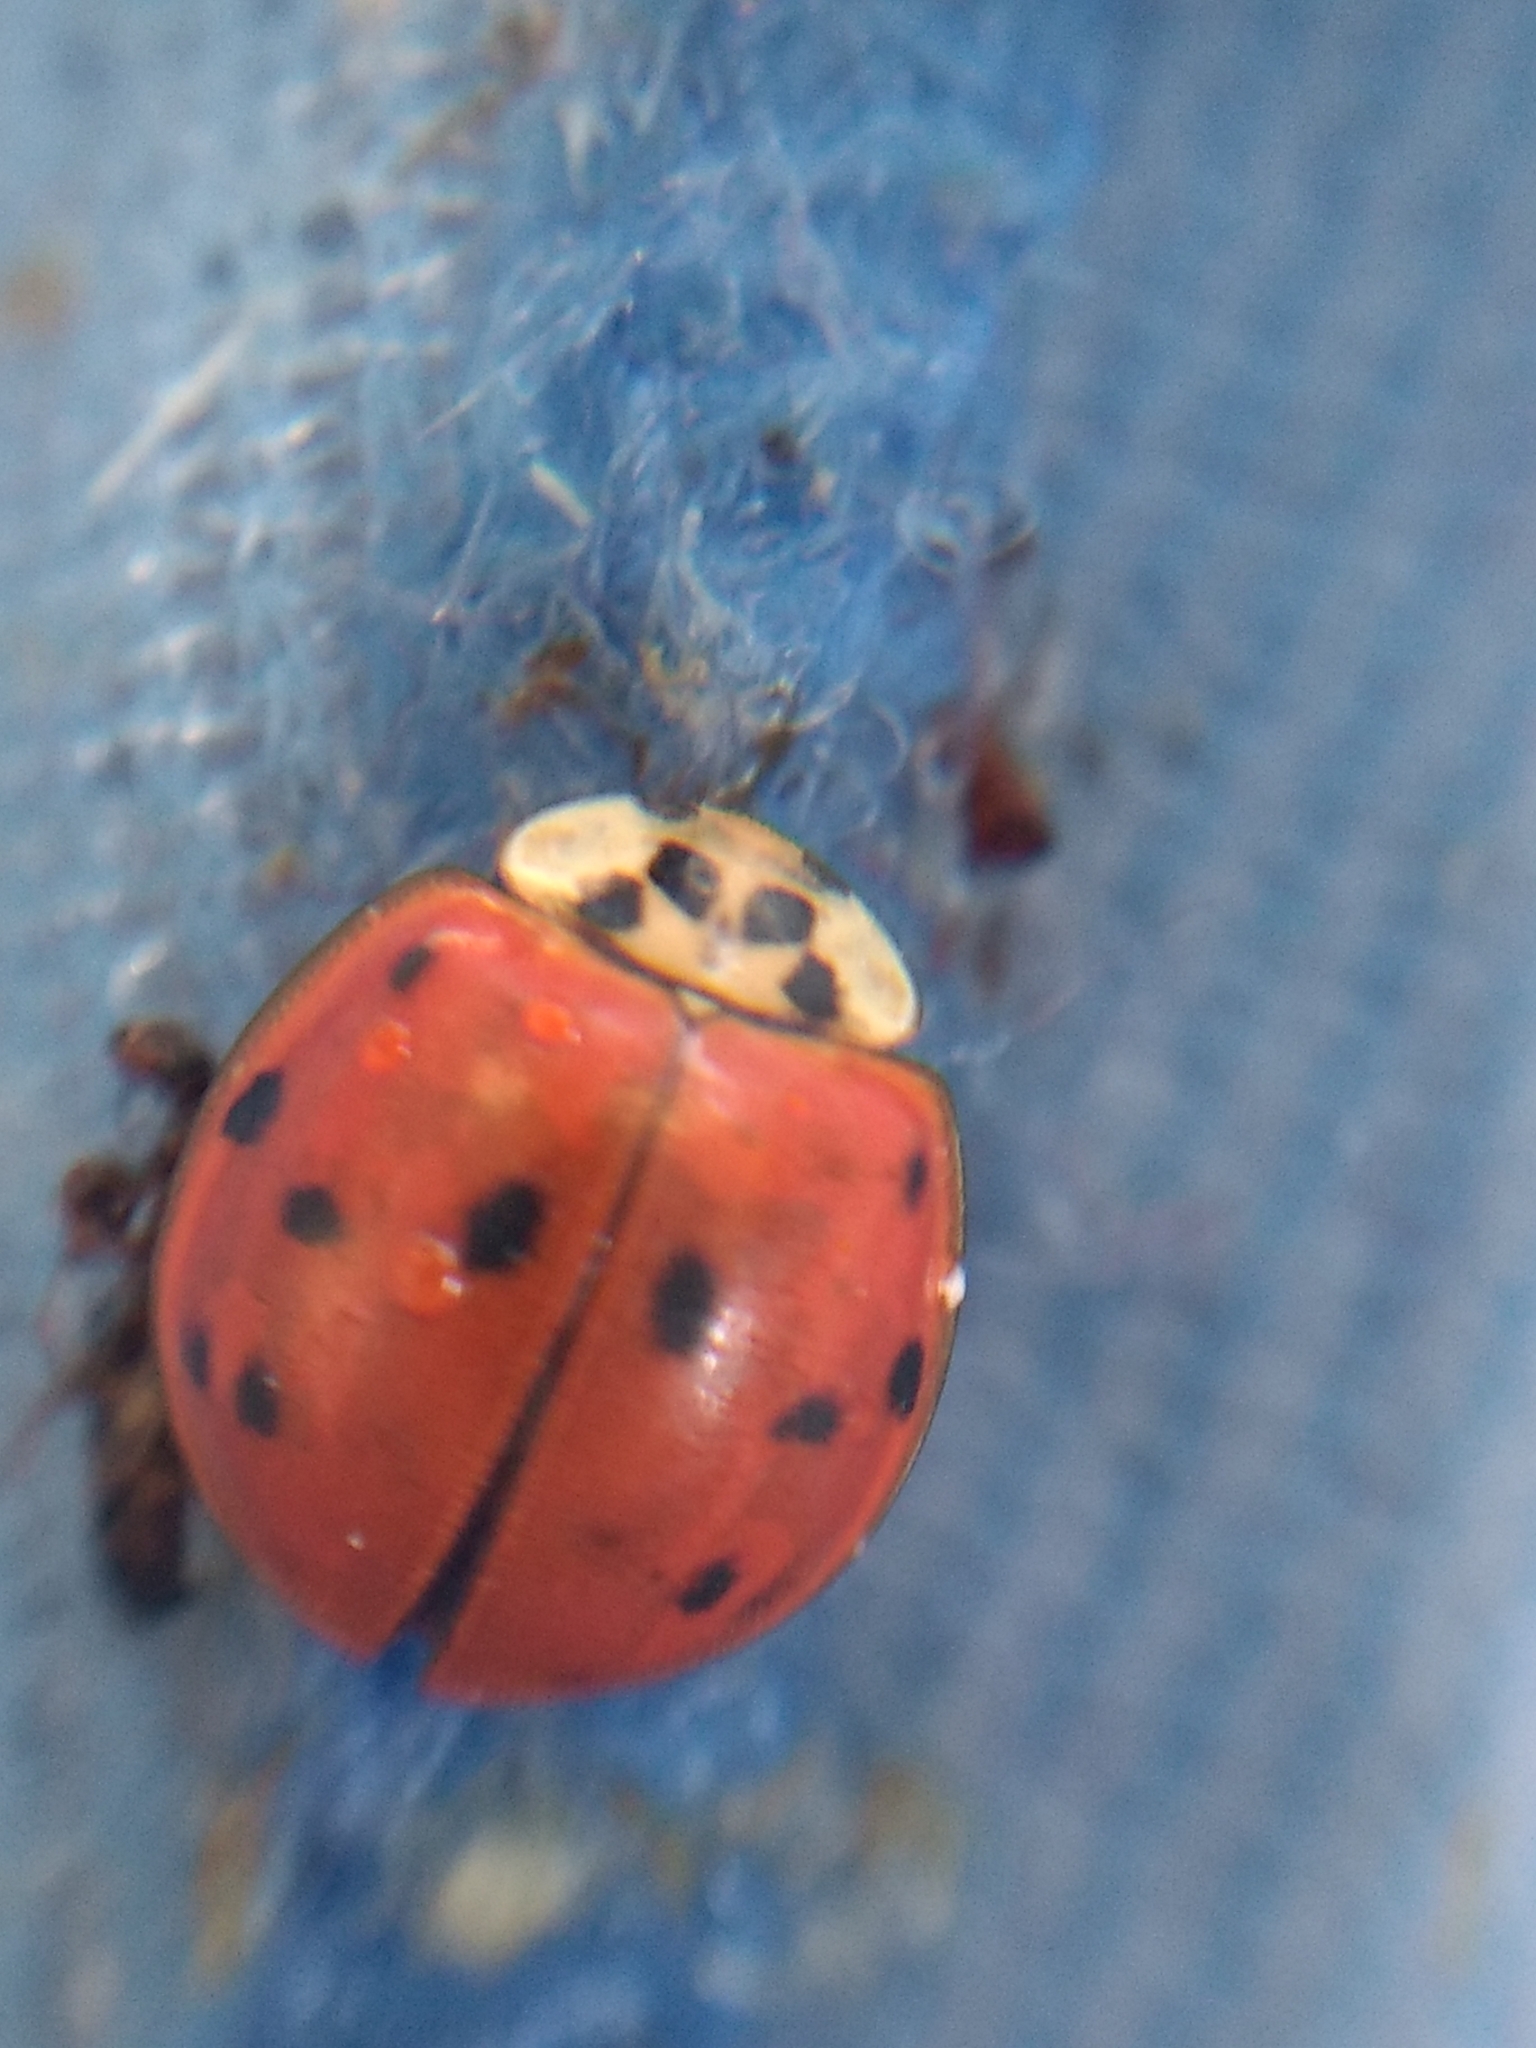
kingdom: Animalia
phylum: Arthropoda
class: Insecta
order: Coleoptera
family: Coccinellidae
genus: Harmonia
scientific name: Harmonia axyridis
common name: Harlequin ladybird
